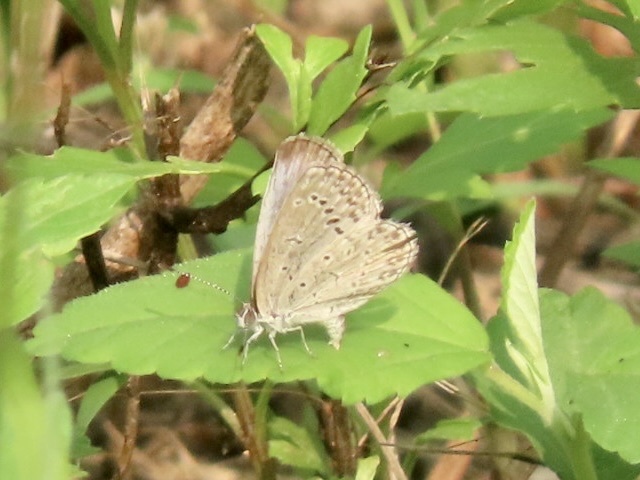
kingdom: Animalia
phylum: Arthropoda
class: Insecta
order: Lepidoptera
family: Lycaenidae
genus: Pseudozizeeria
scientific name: Pseudozizeeria maha
